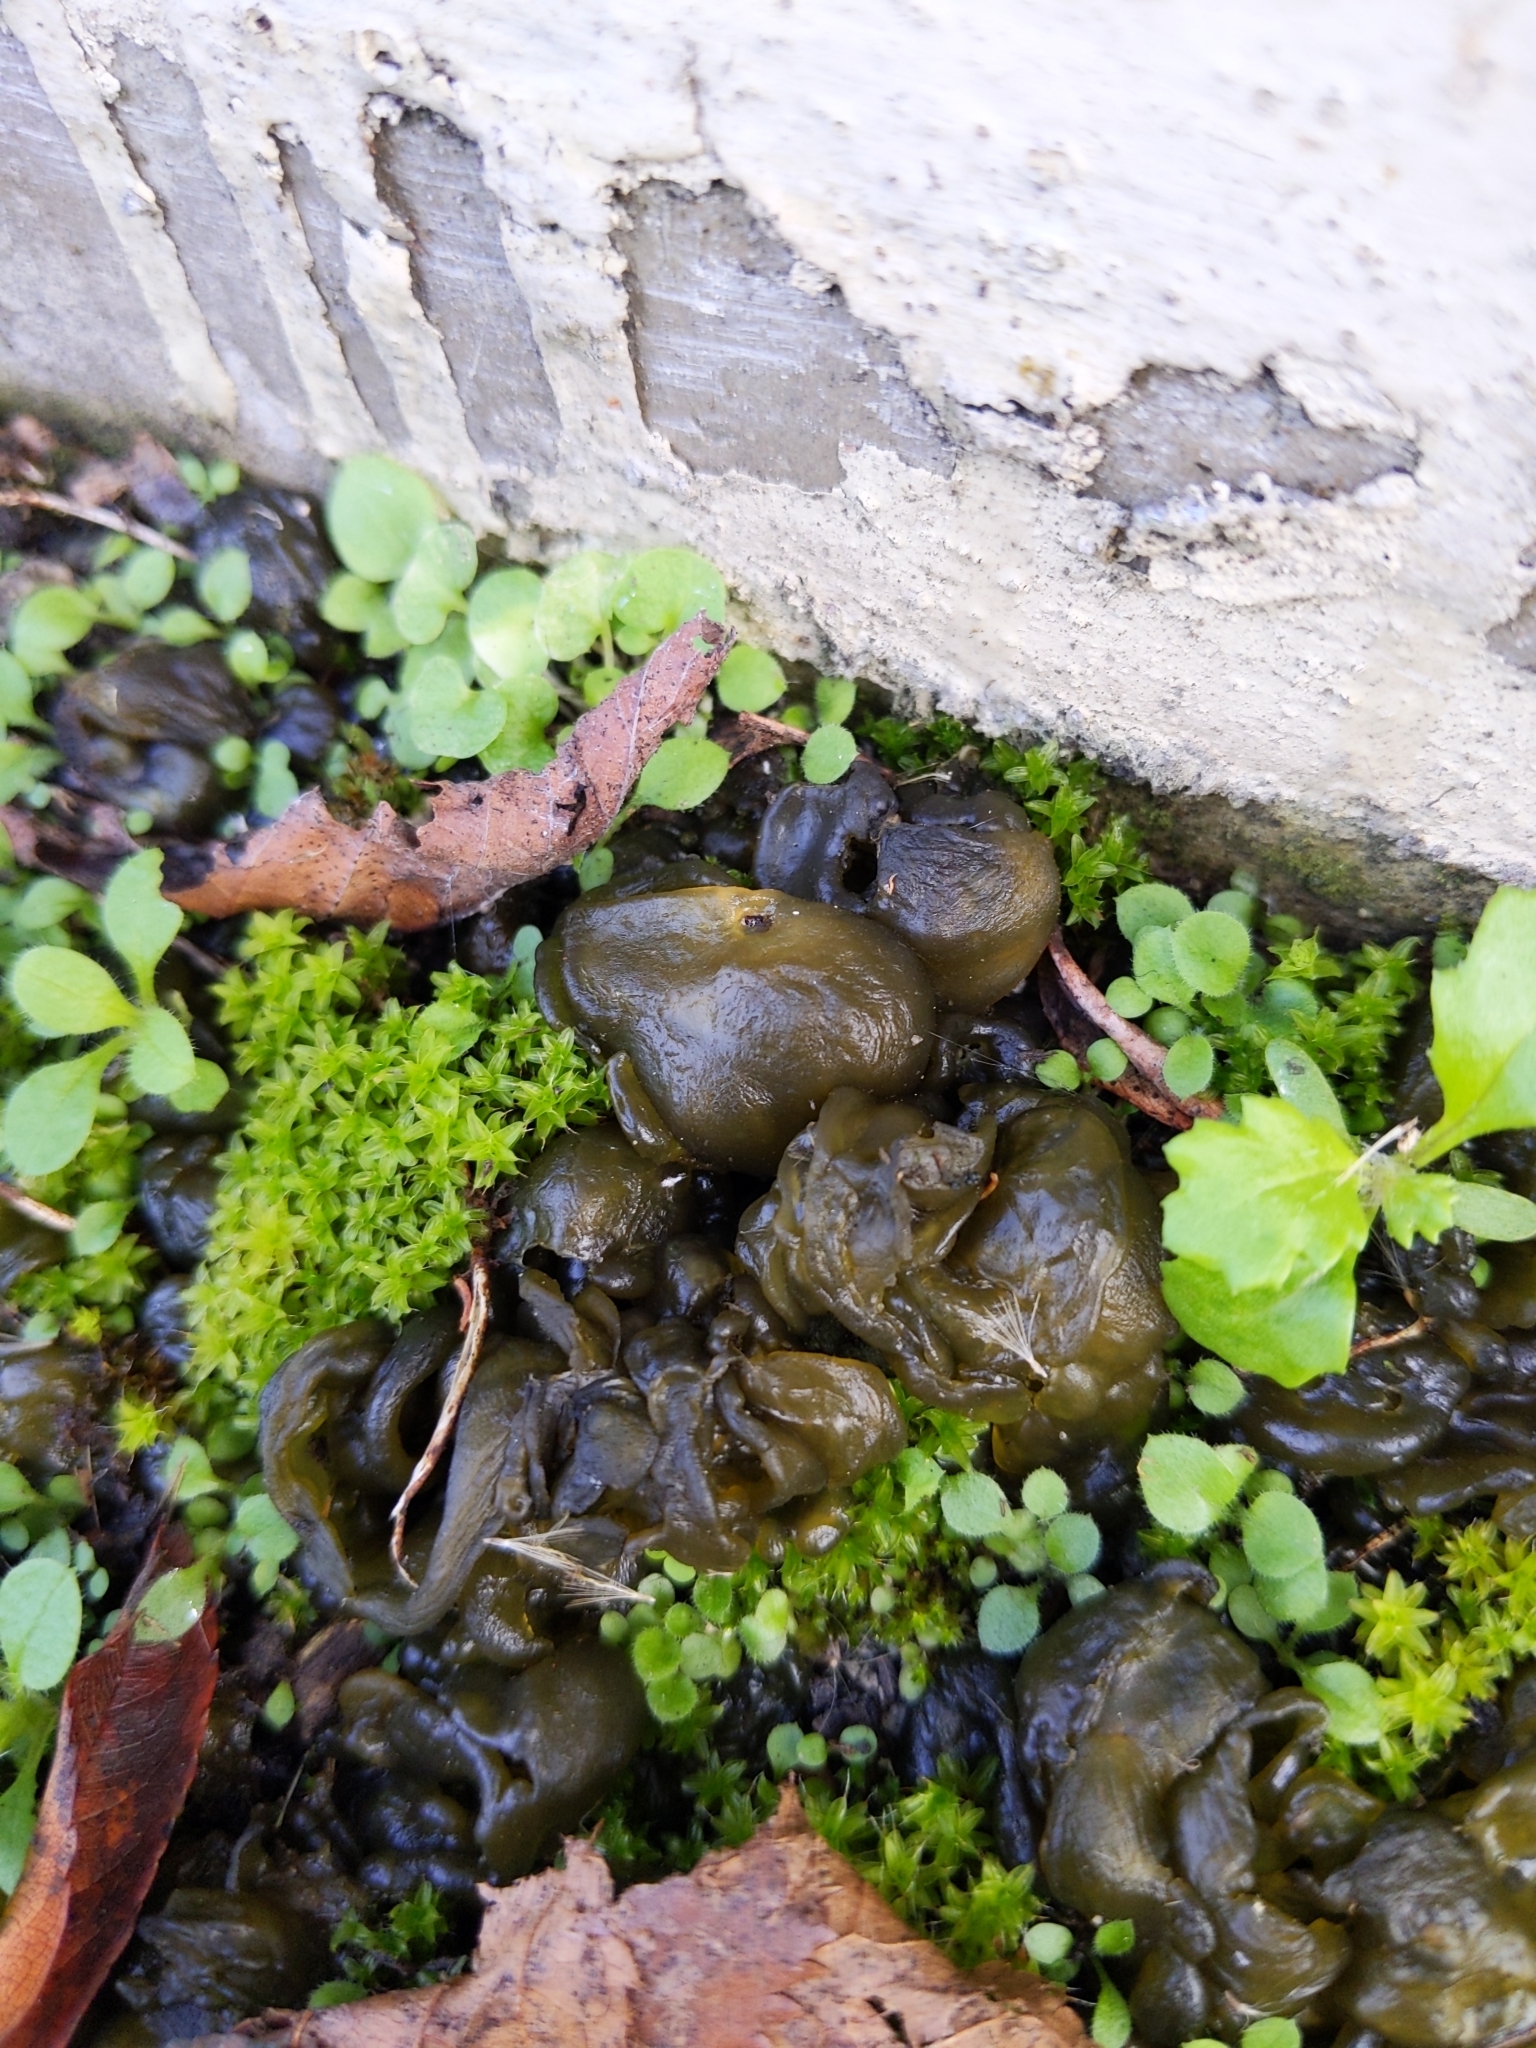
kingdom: Bacteria
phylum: Cyanobacteria
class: Cyanobacteriia
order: Cyanobacteriales
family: Nostocaceae
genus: Nostoc
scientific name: Nostoc commune
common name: Star jelly
